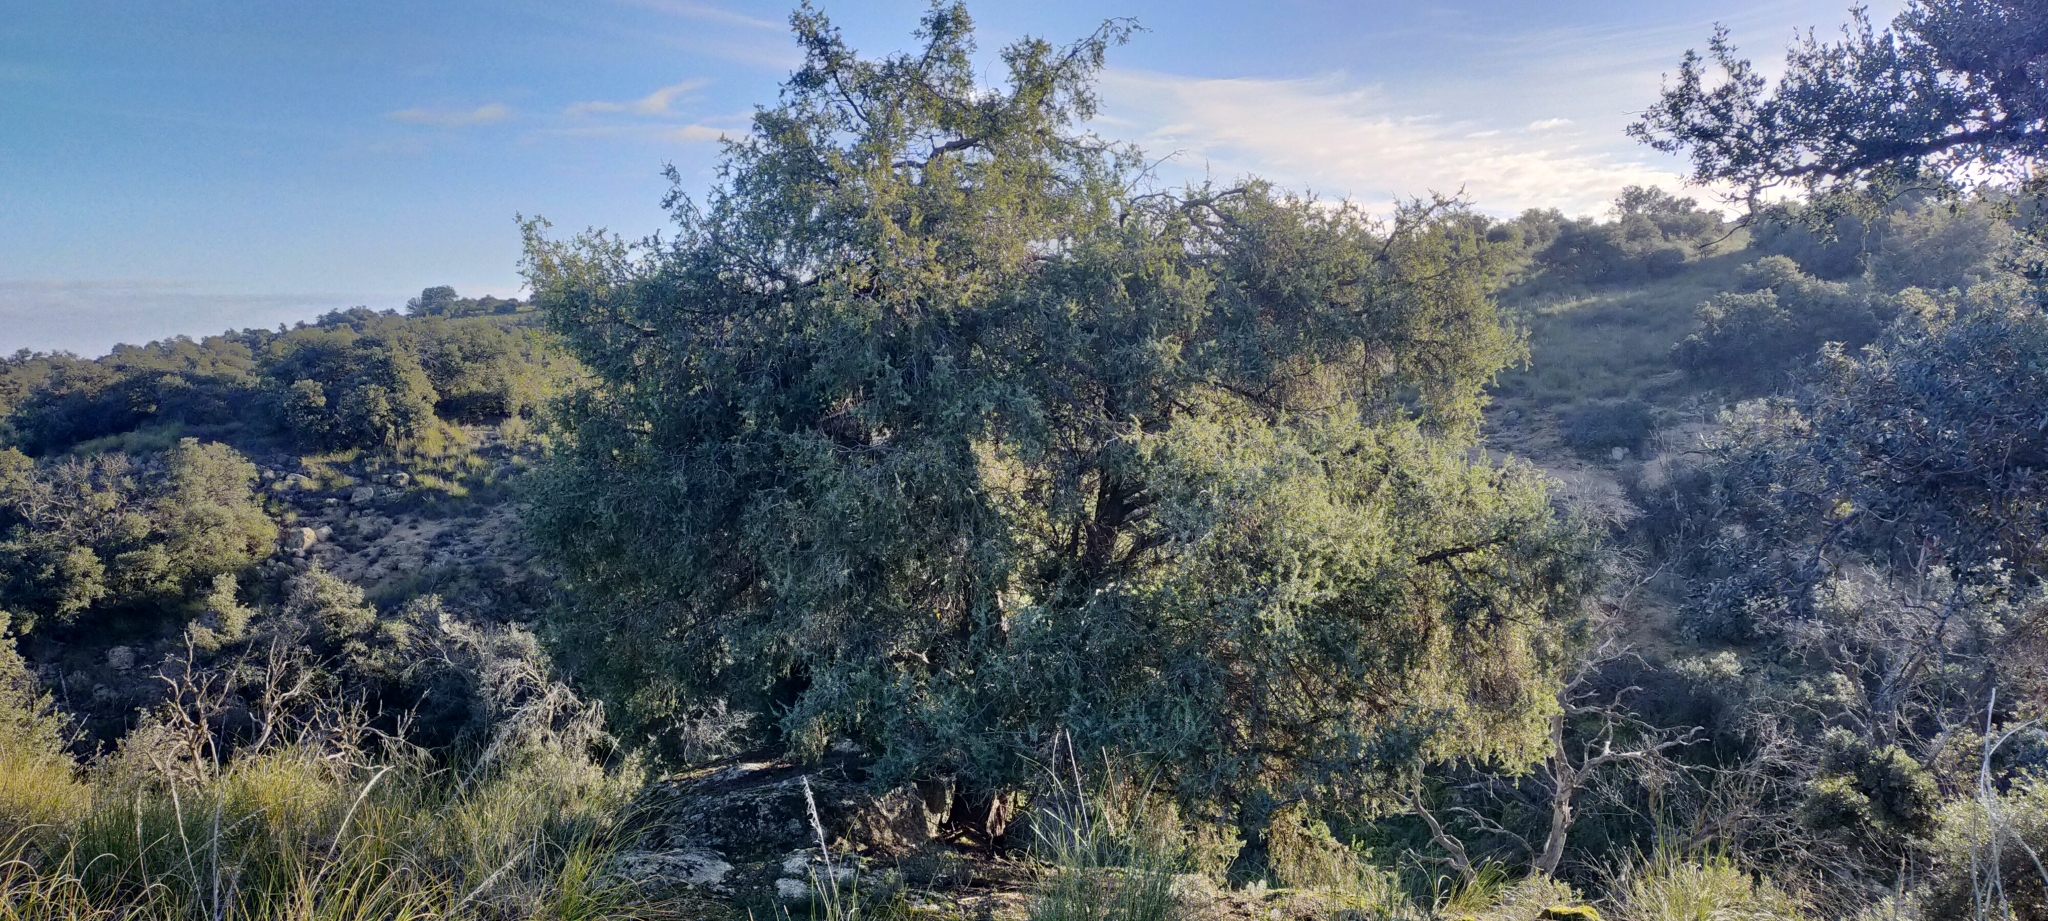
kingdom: Plantae
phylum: Tracheophyta
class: Pinopsida
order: Pinales
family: Cupressaceae
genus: Juniperus
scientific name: Juniperus oxycedrus
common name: Prickly juniper
